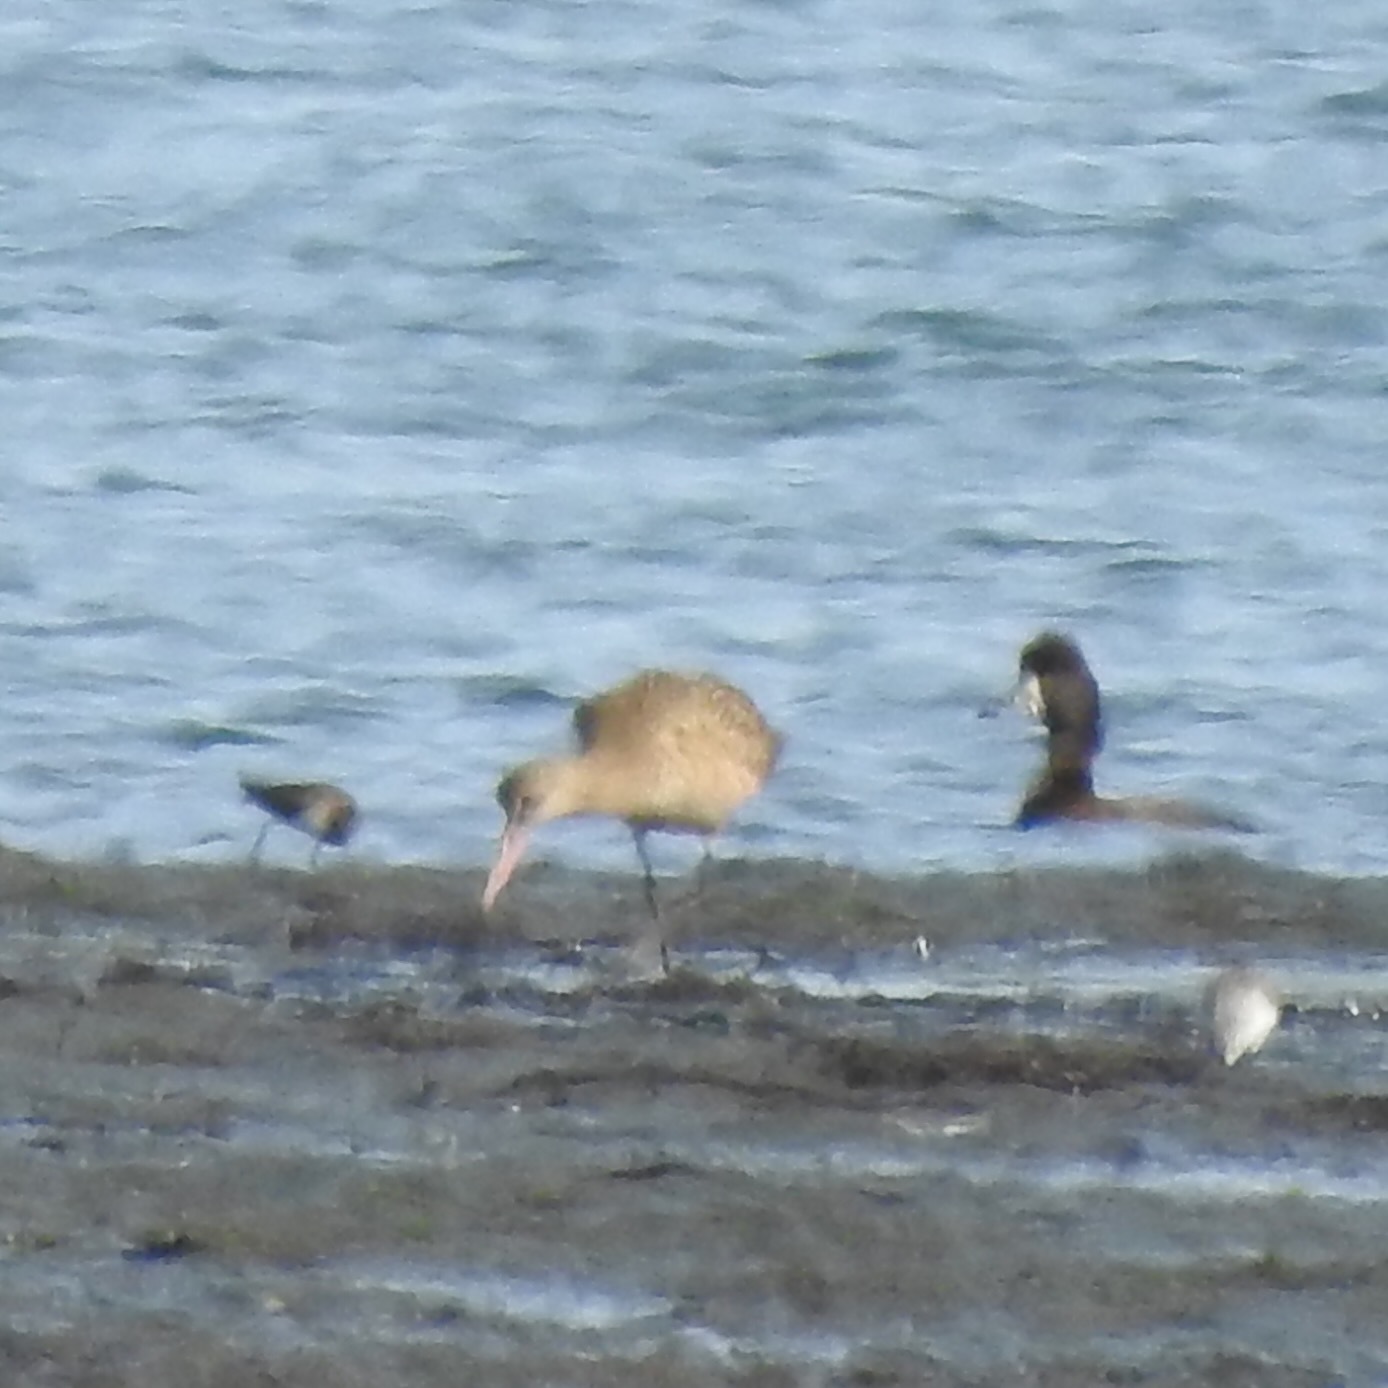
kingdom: Animalia
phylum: Chordata
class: Aves
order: Charadriiformes
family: Scolopacidae
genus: Limosa
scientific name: Limosa fedoa
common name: Marbled godwit
